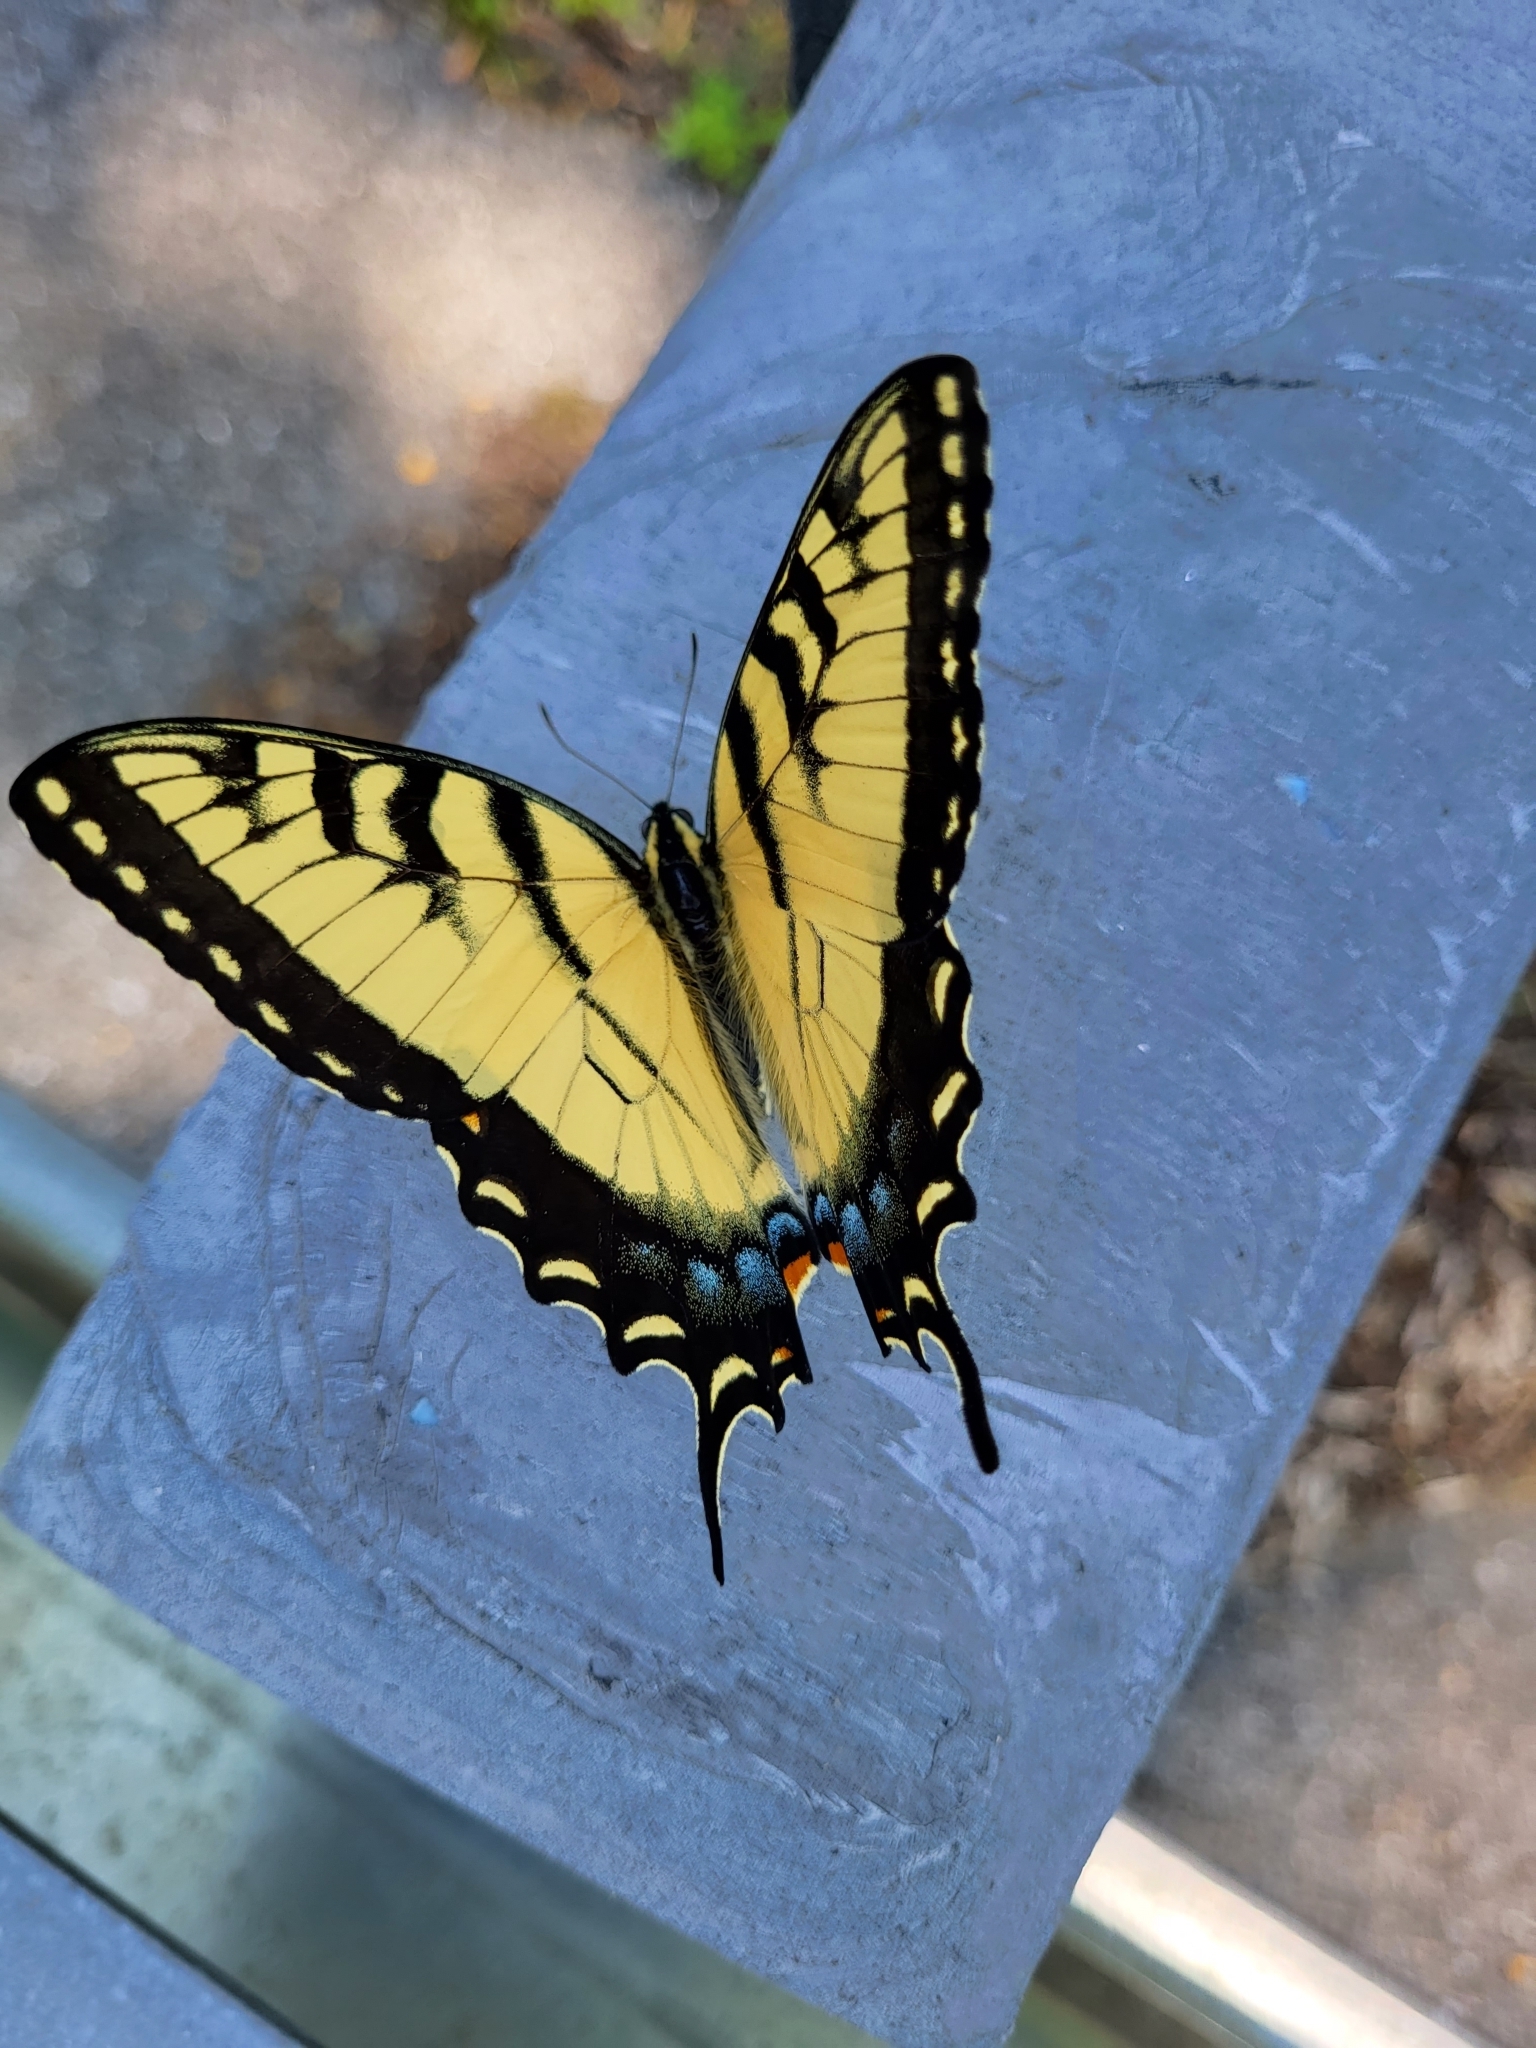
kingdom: Animalia
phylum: Arthropoda
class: Insecta
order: Lepidoptera
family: Papilionidae
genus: Papilio
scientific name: Papilio glaucus
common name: Tiger swallowtail
